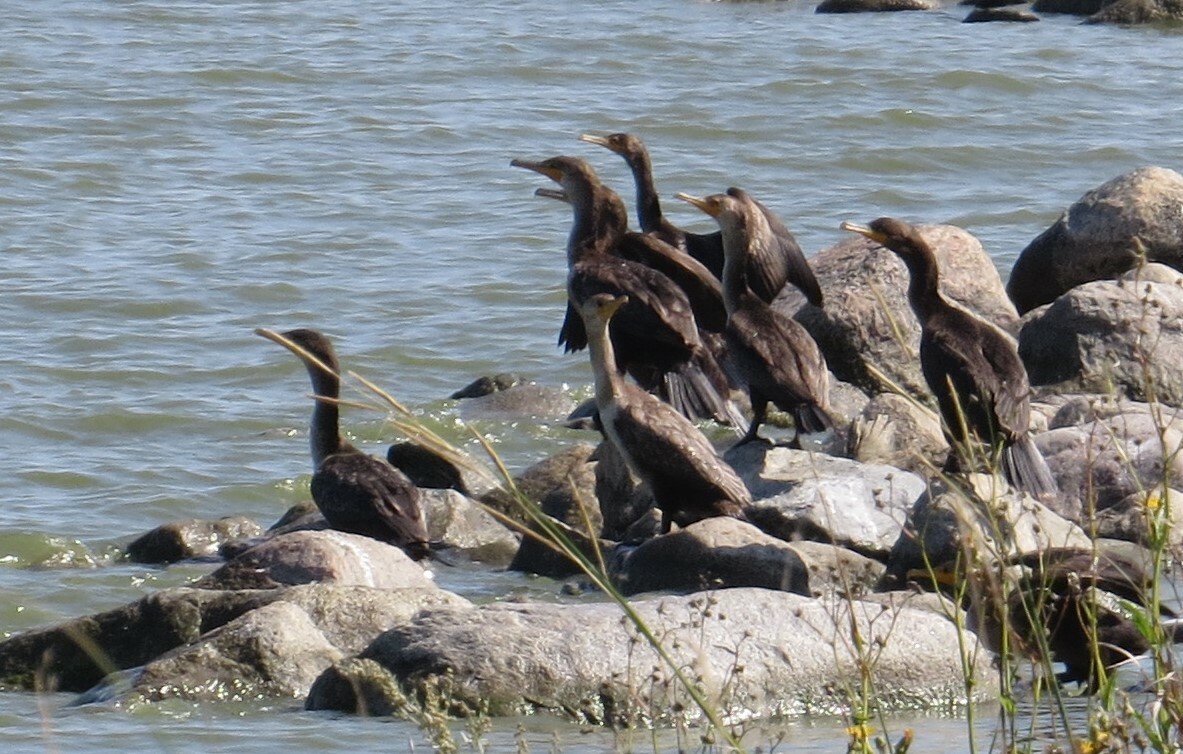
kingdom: Animalia
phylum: Chordata
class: Aves
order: Suliformes
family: Phalacrocoracidae
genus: Phalacrocorax
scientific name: Phalacrocorax auritus
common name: Double-crested cormorant
